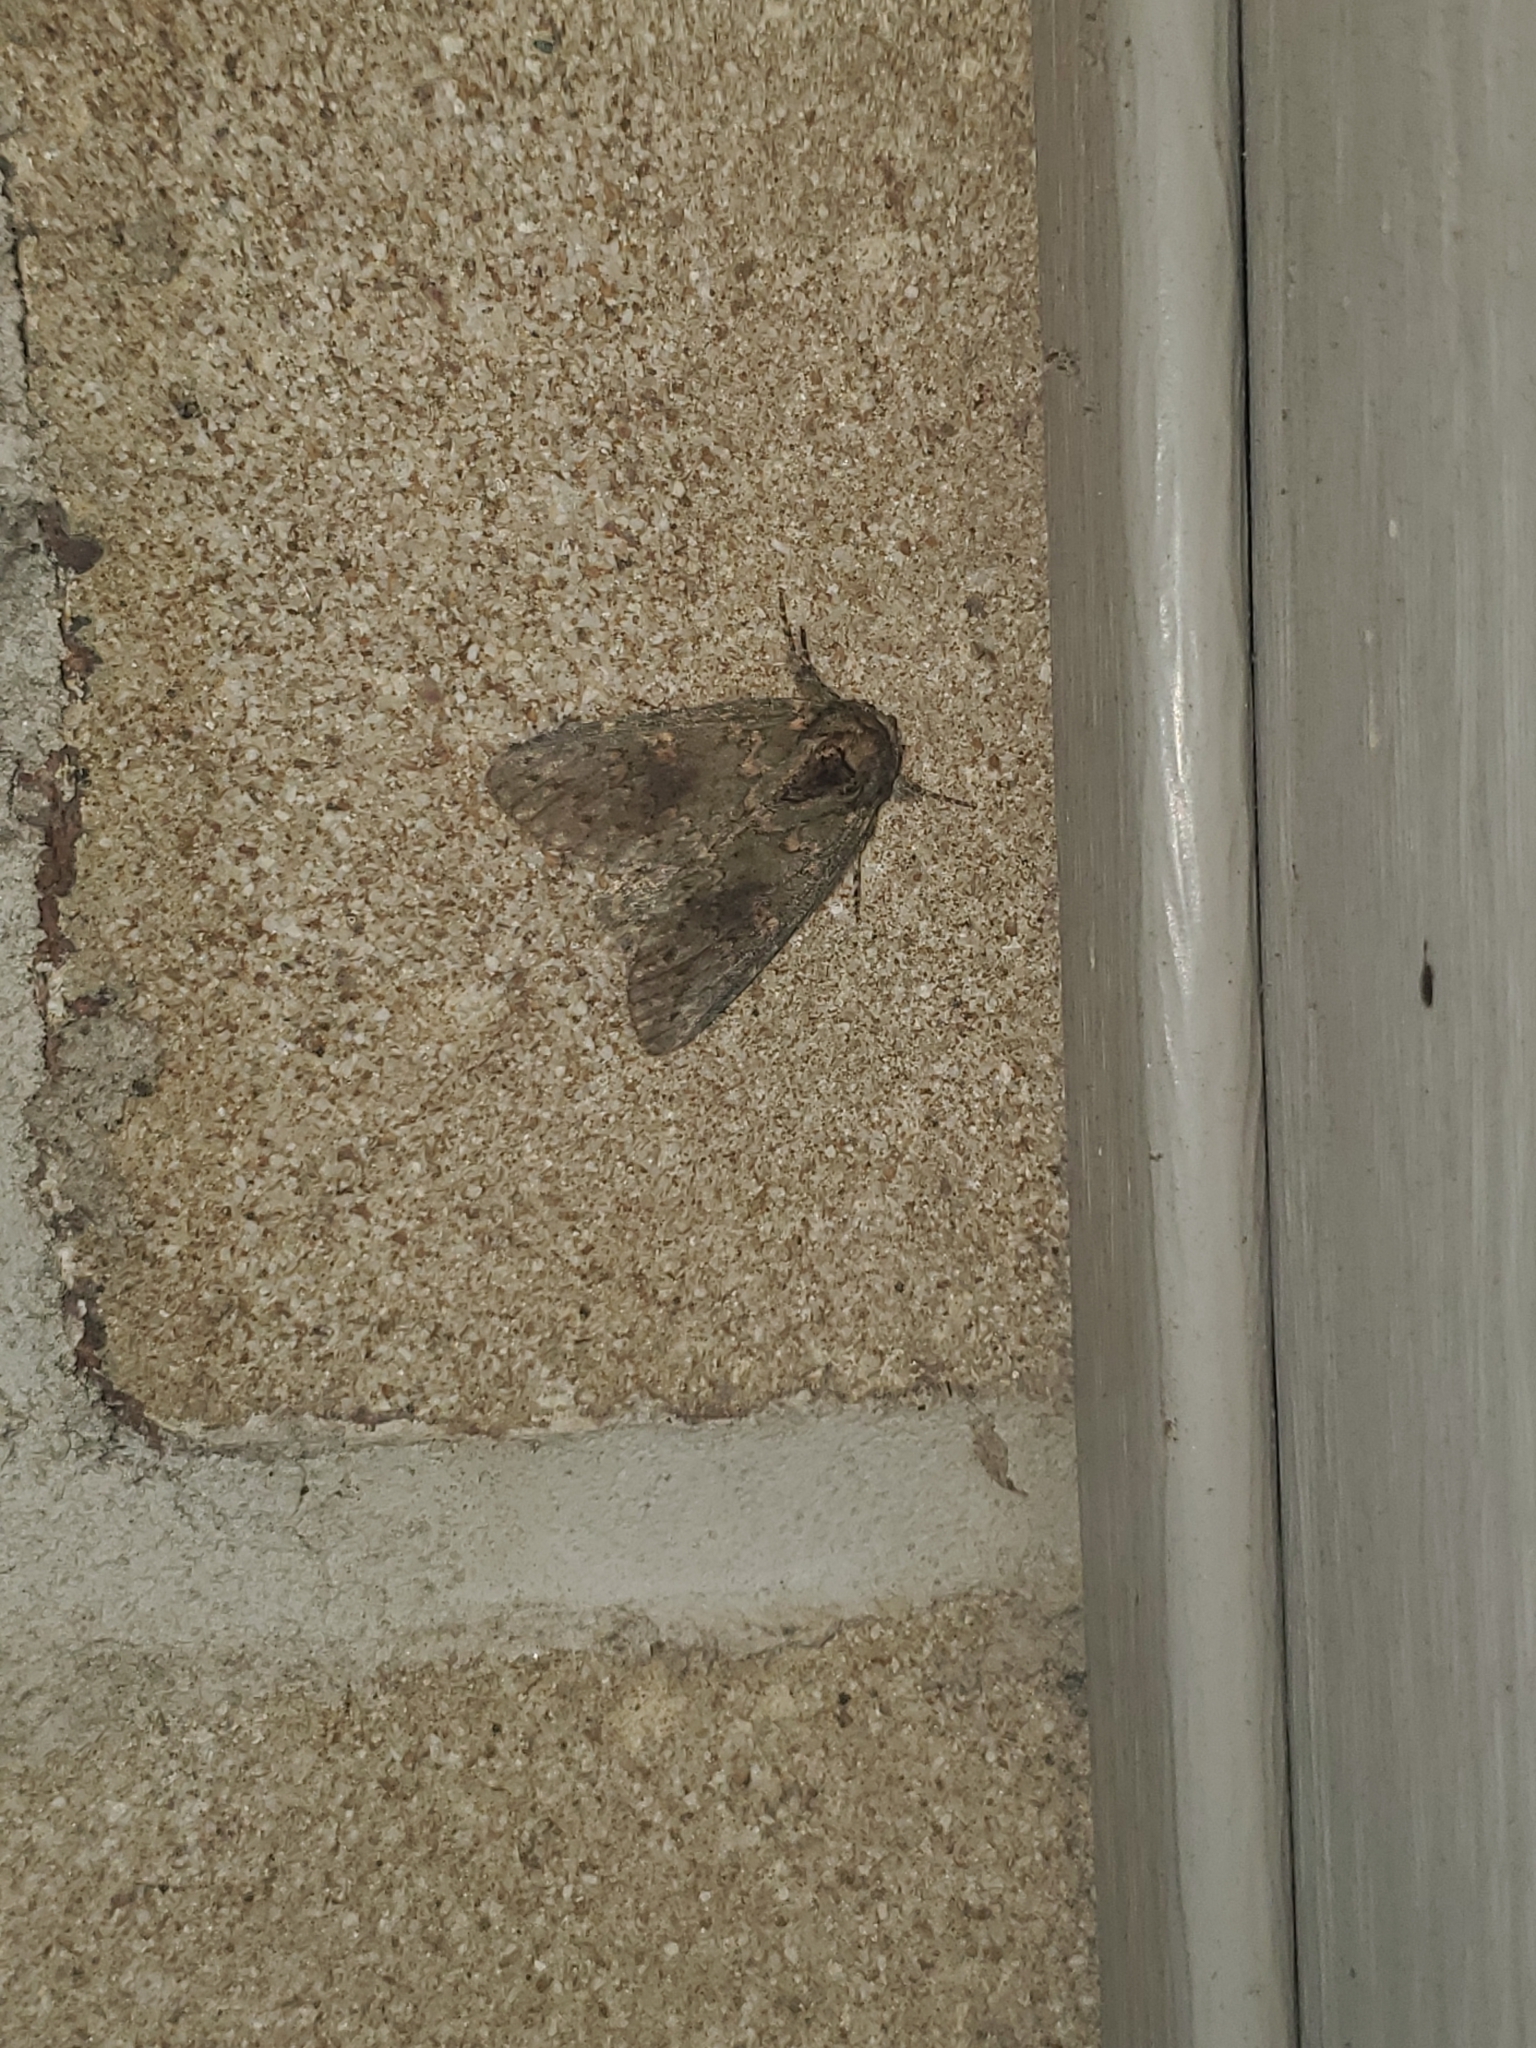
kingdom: Animalia
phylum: Arthropoda
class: Insecta
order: Lepidoptera
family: Notodontidae
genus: Disphragis
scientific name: Disphragis Cecrita biundata
